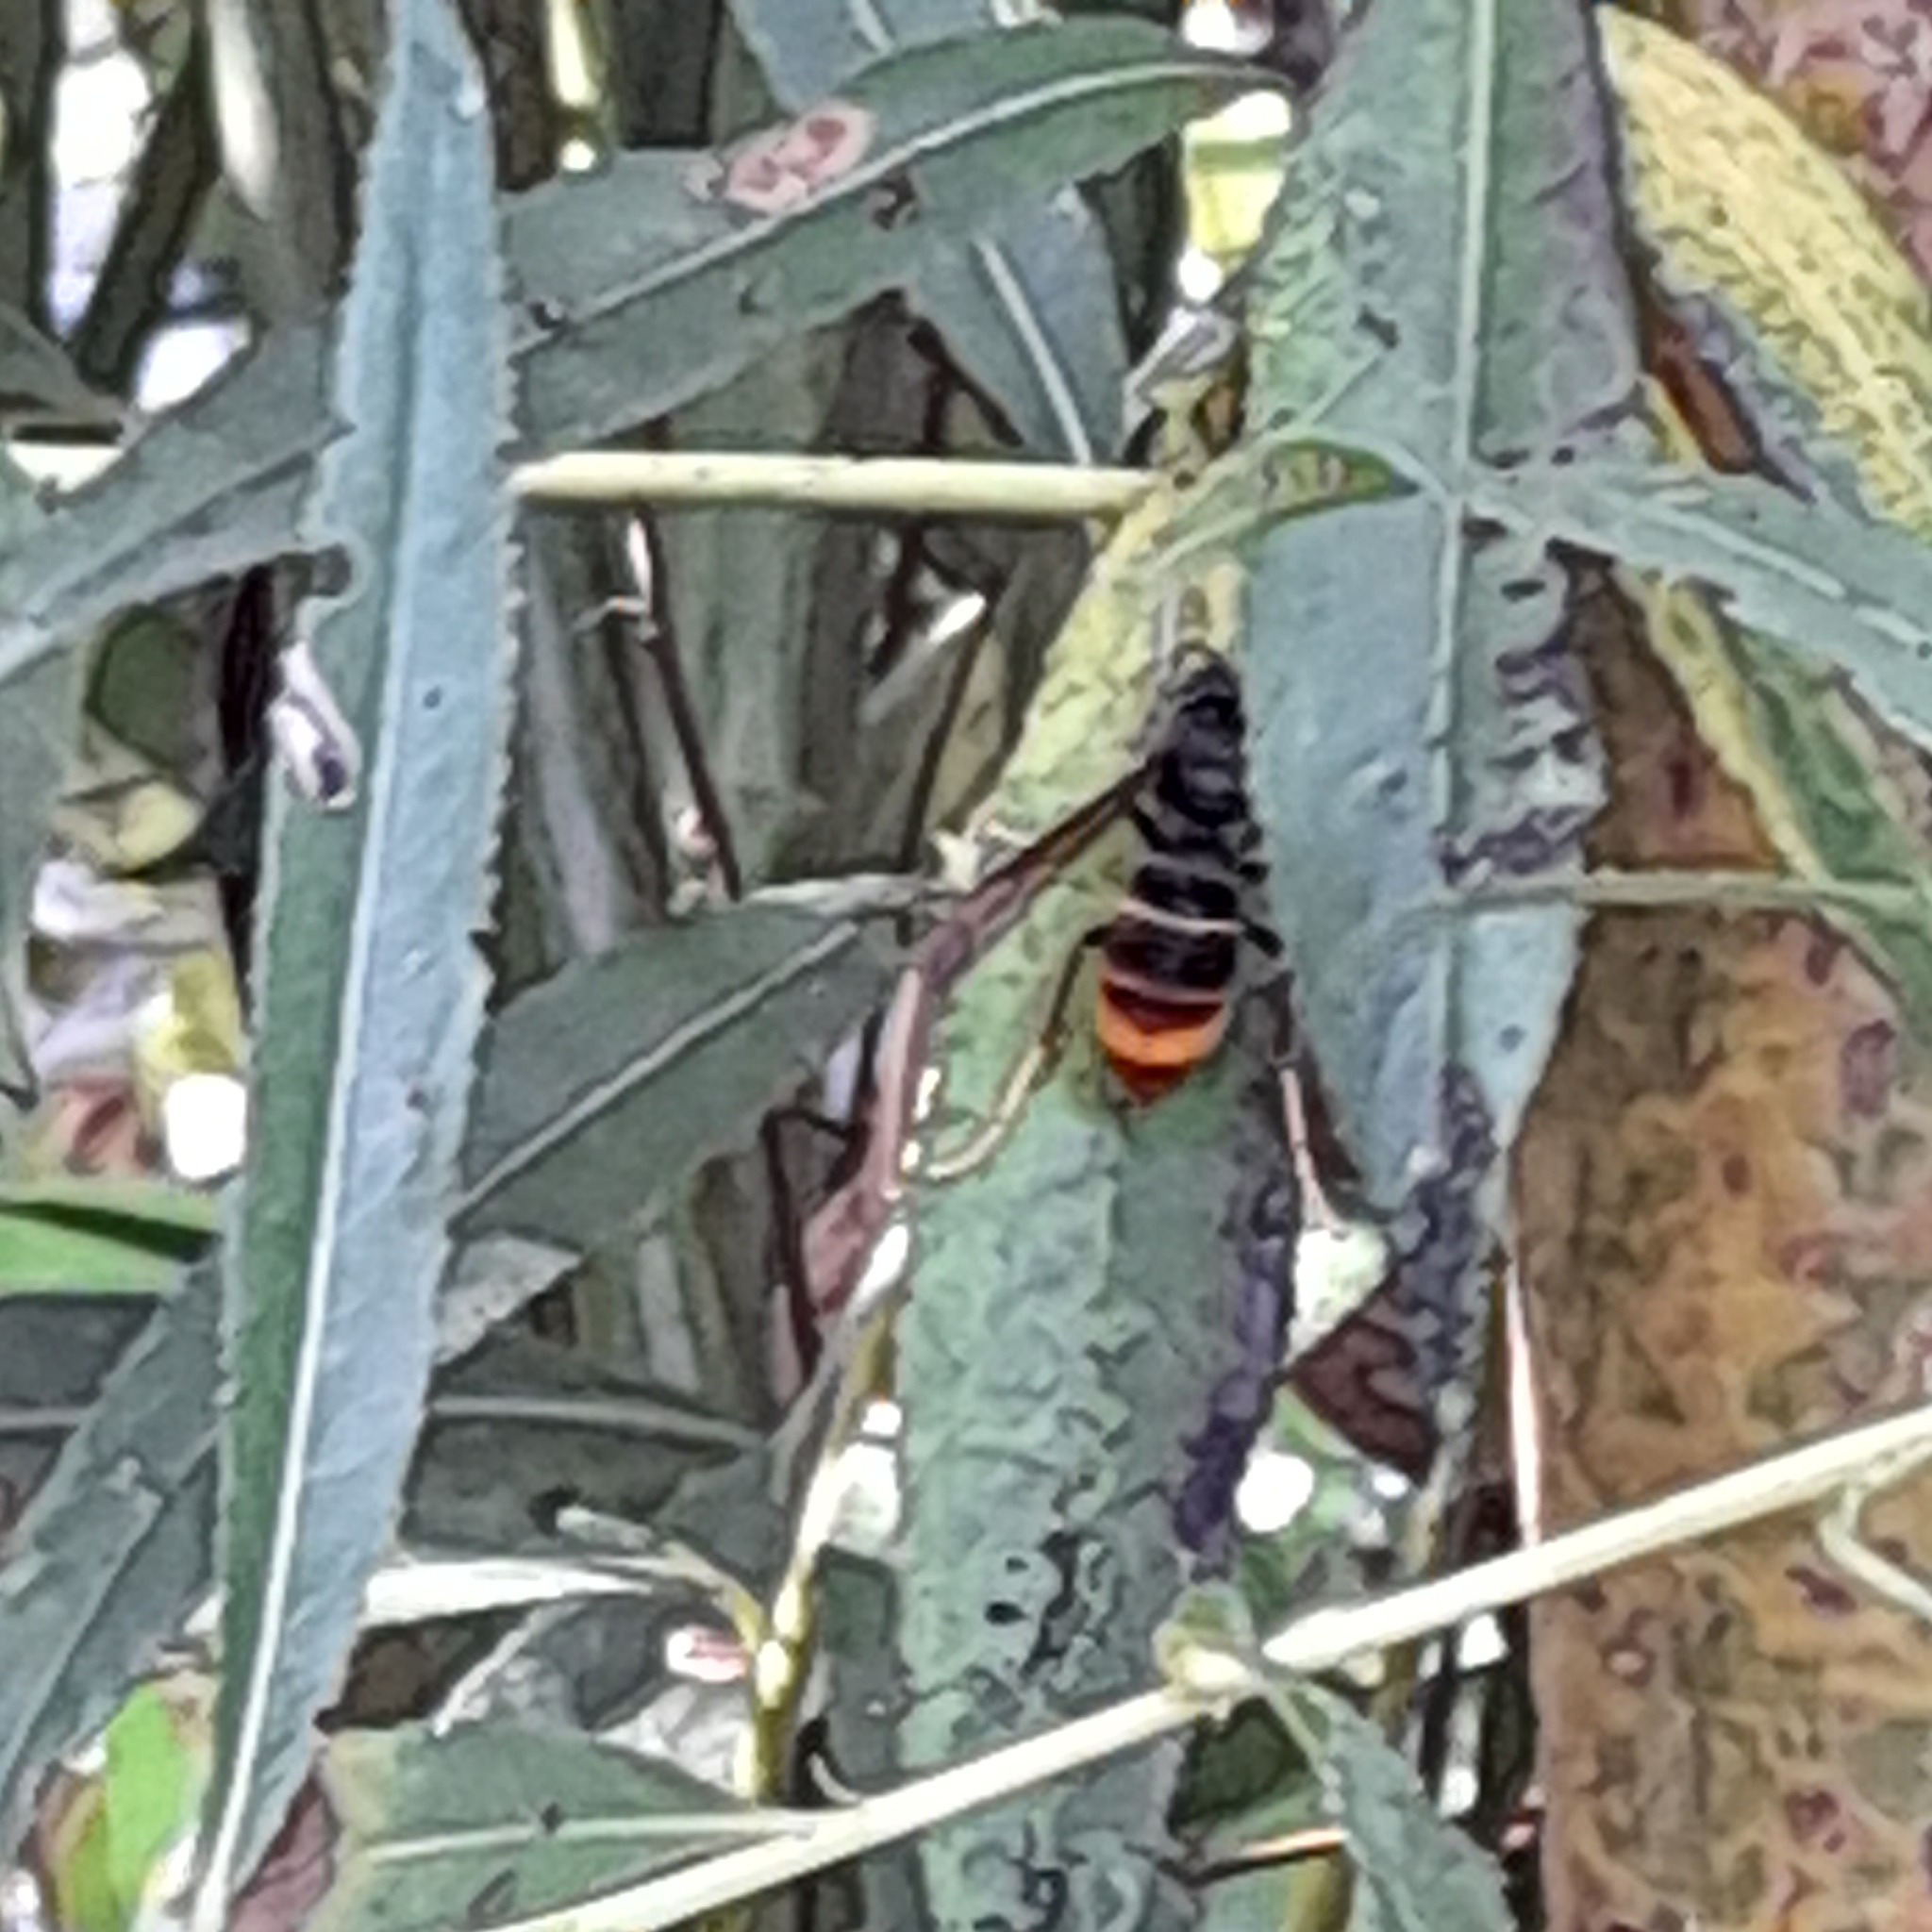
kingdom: Animalia
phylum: Arthropoda
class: Insecta
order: Hymenoptera
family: Vespidae
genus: Vespa
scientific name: Vespa velutina
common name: Asian hornet
